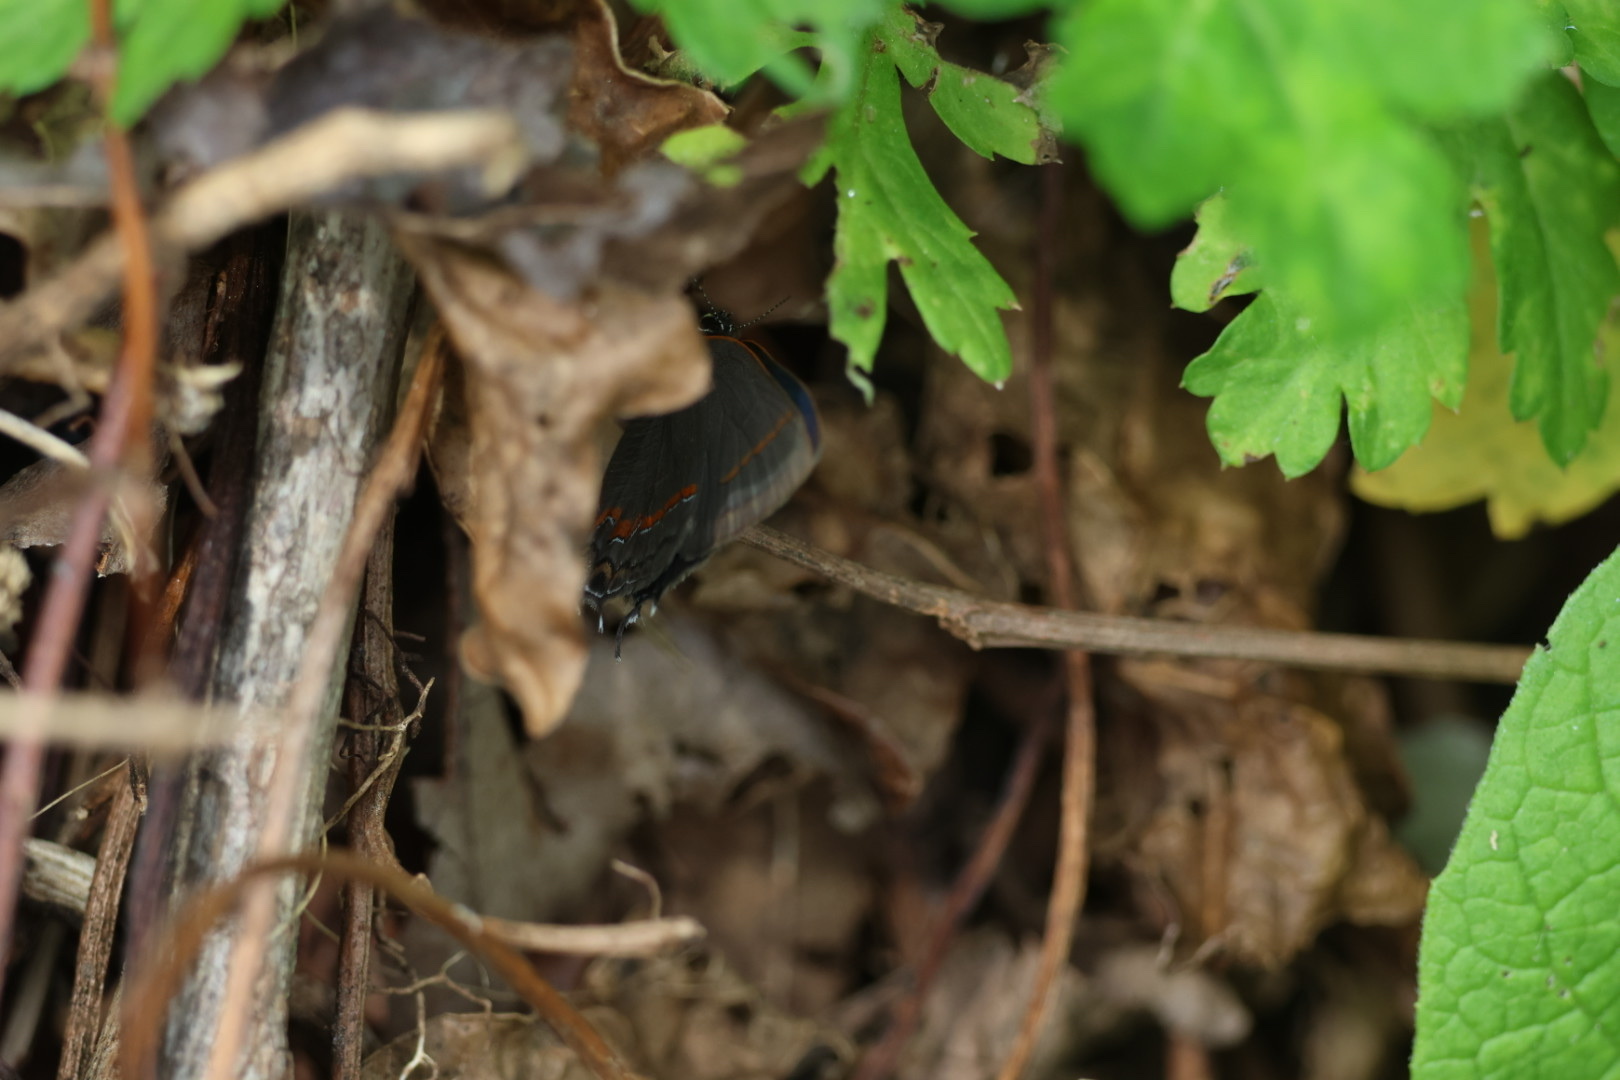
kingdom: Animalia
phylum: Arthropoda
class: Insecta
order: Lepidoptera
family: Lycaenidae
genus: Calycopis
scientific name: Calycopis cecrops
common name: Red-banded hairstreak
